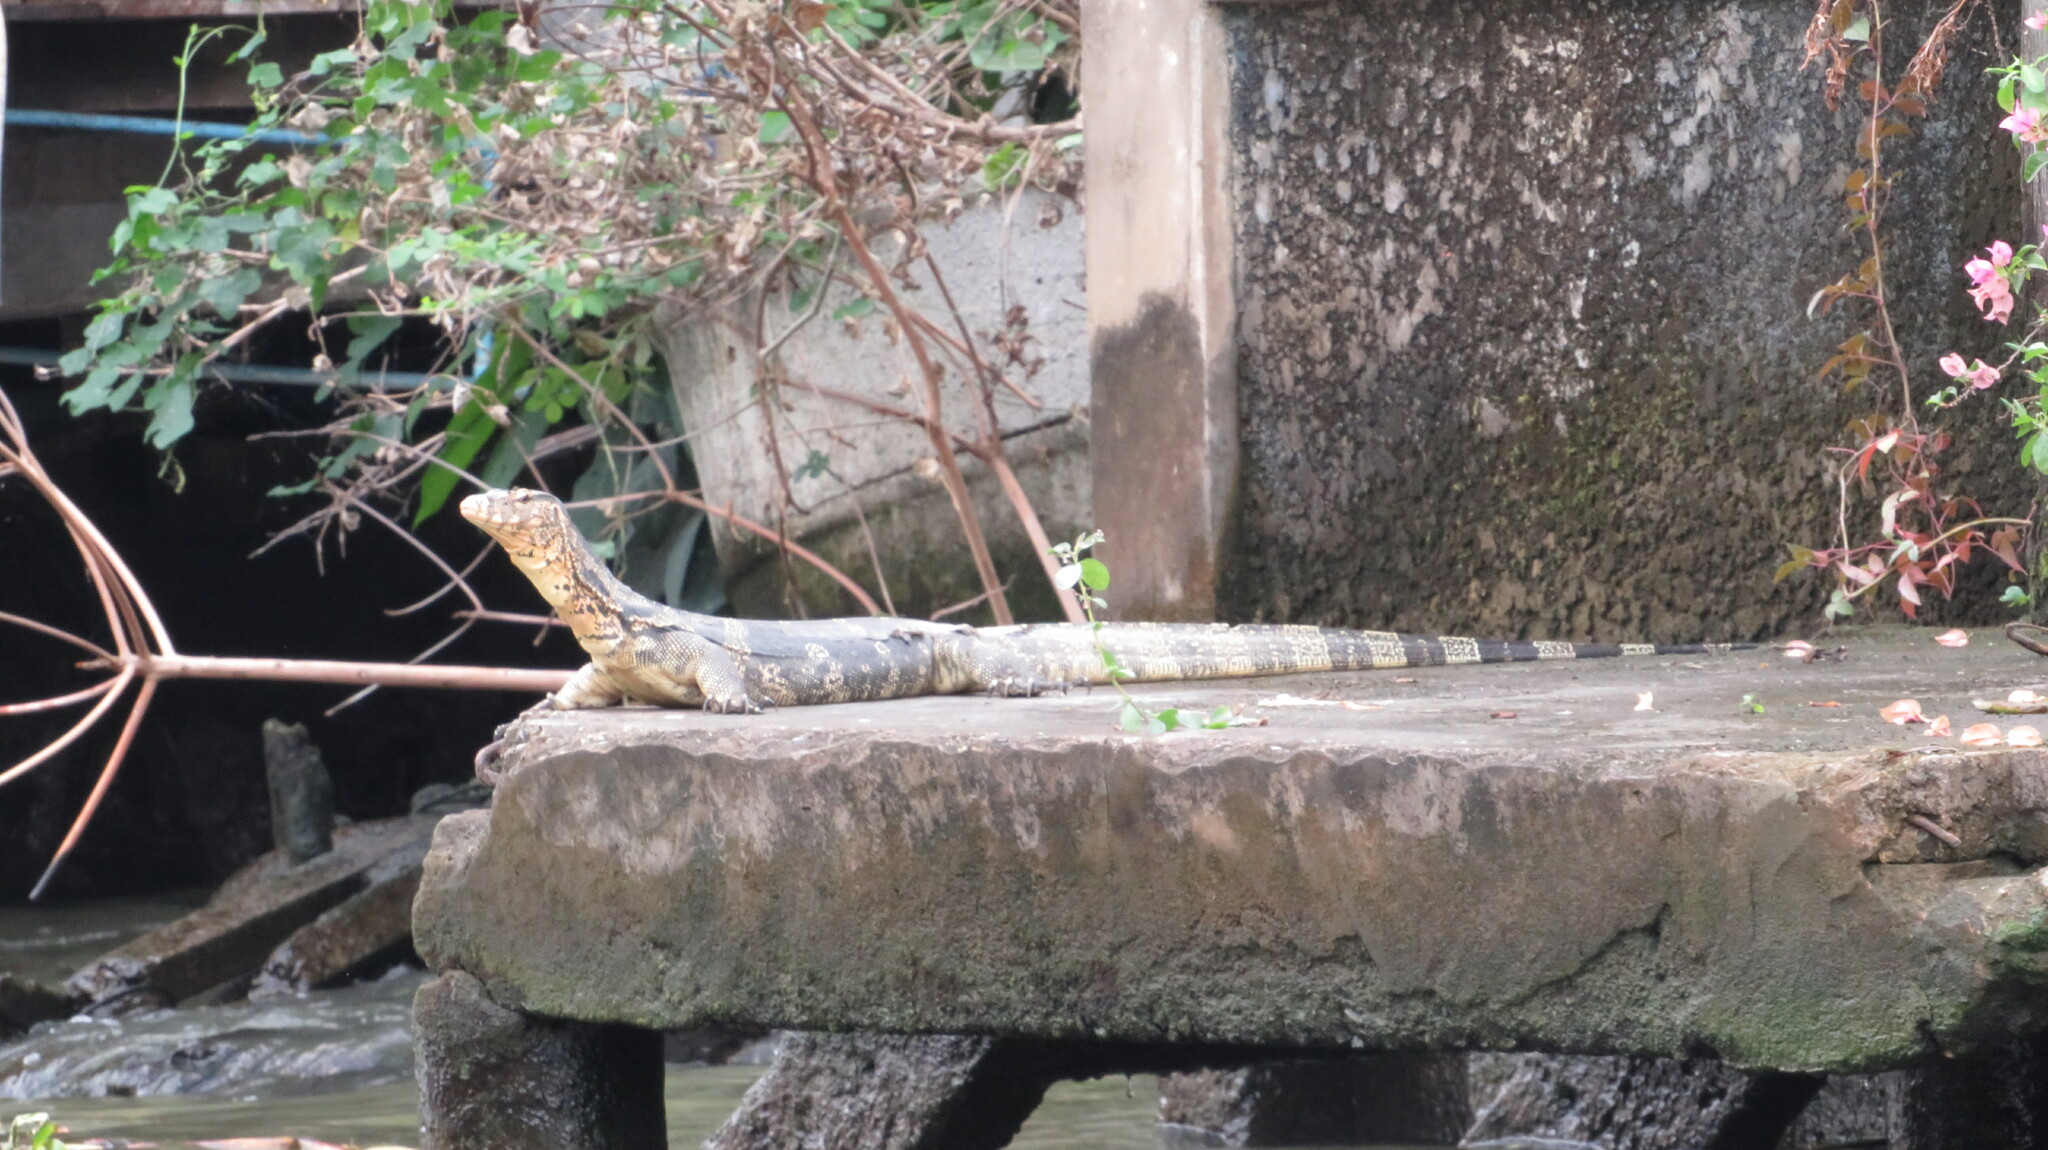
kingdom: Animalia
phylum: Chordata
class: Squamata
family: Varanidae
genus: Varanus
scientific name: Varanus salvator
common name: Common water monitor
